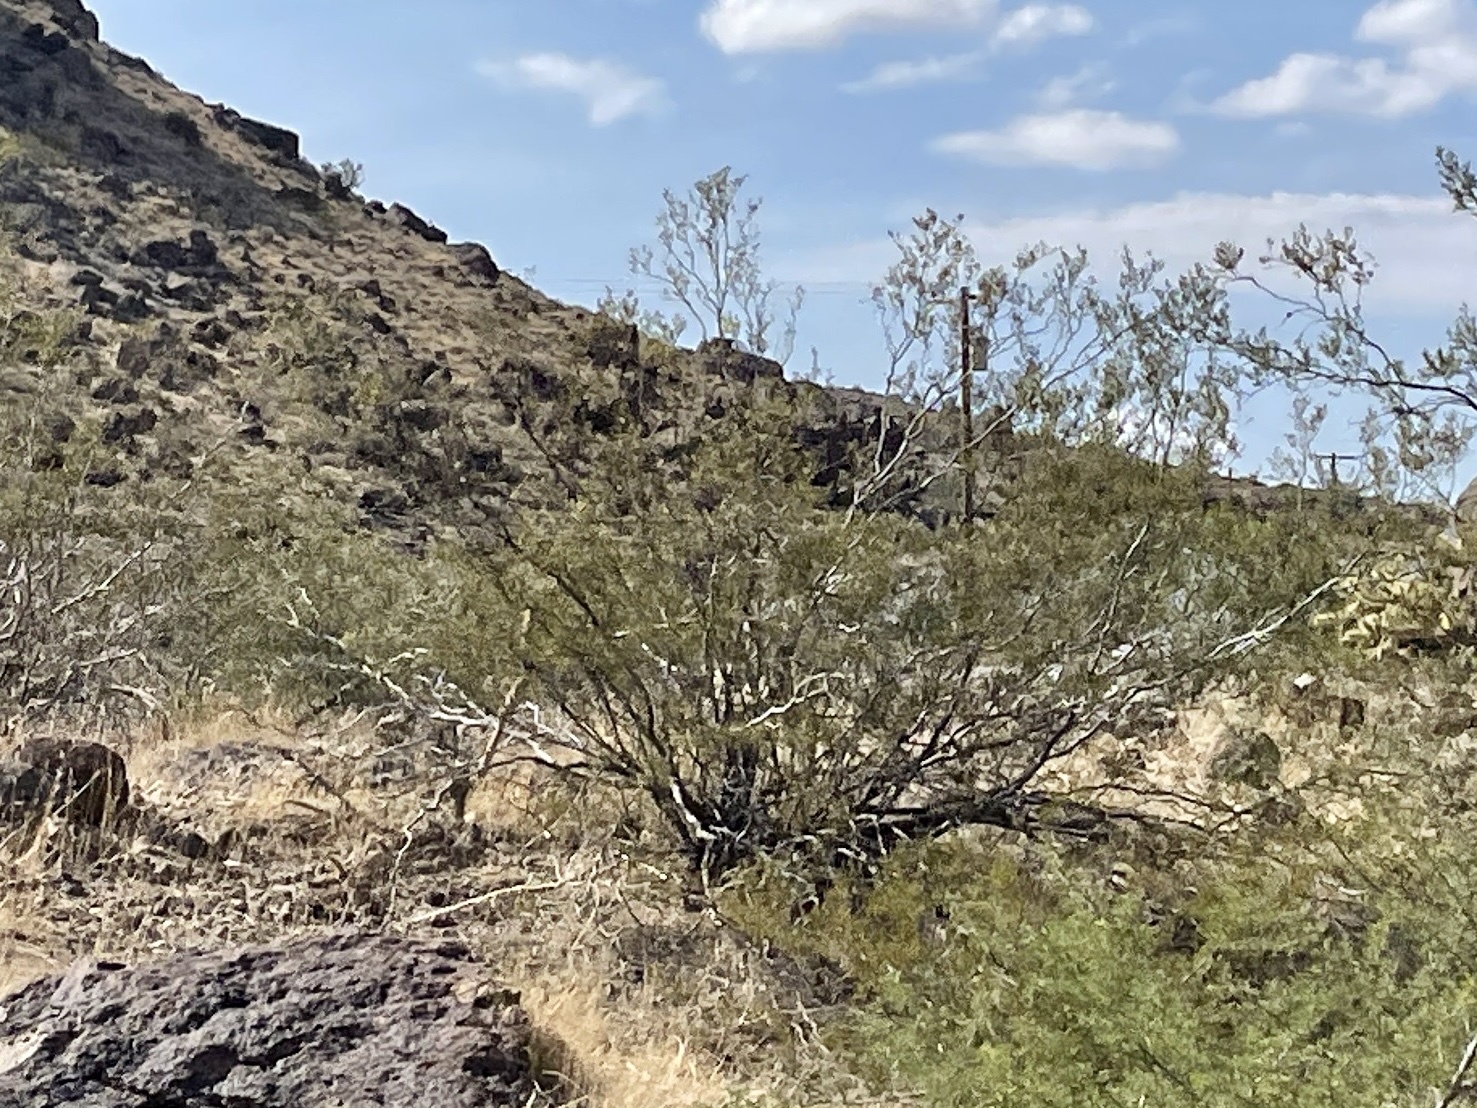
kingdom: Plantae
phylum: Tracheophyta
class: Magnoliopsida
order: Zygophyllales
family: Zygophyllaceae
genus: Larrea
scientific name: Larrea tridentata
